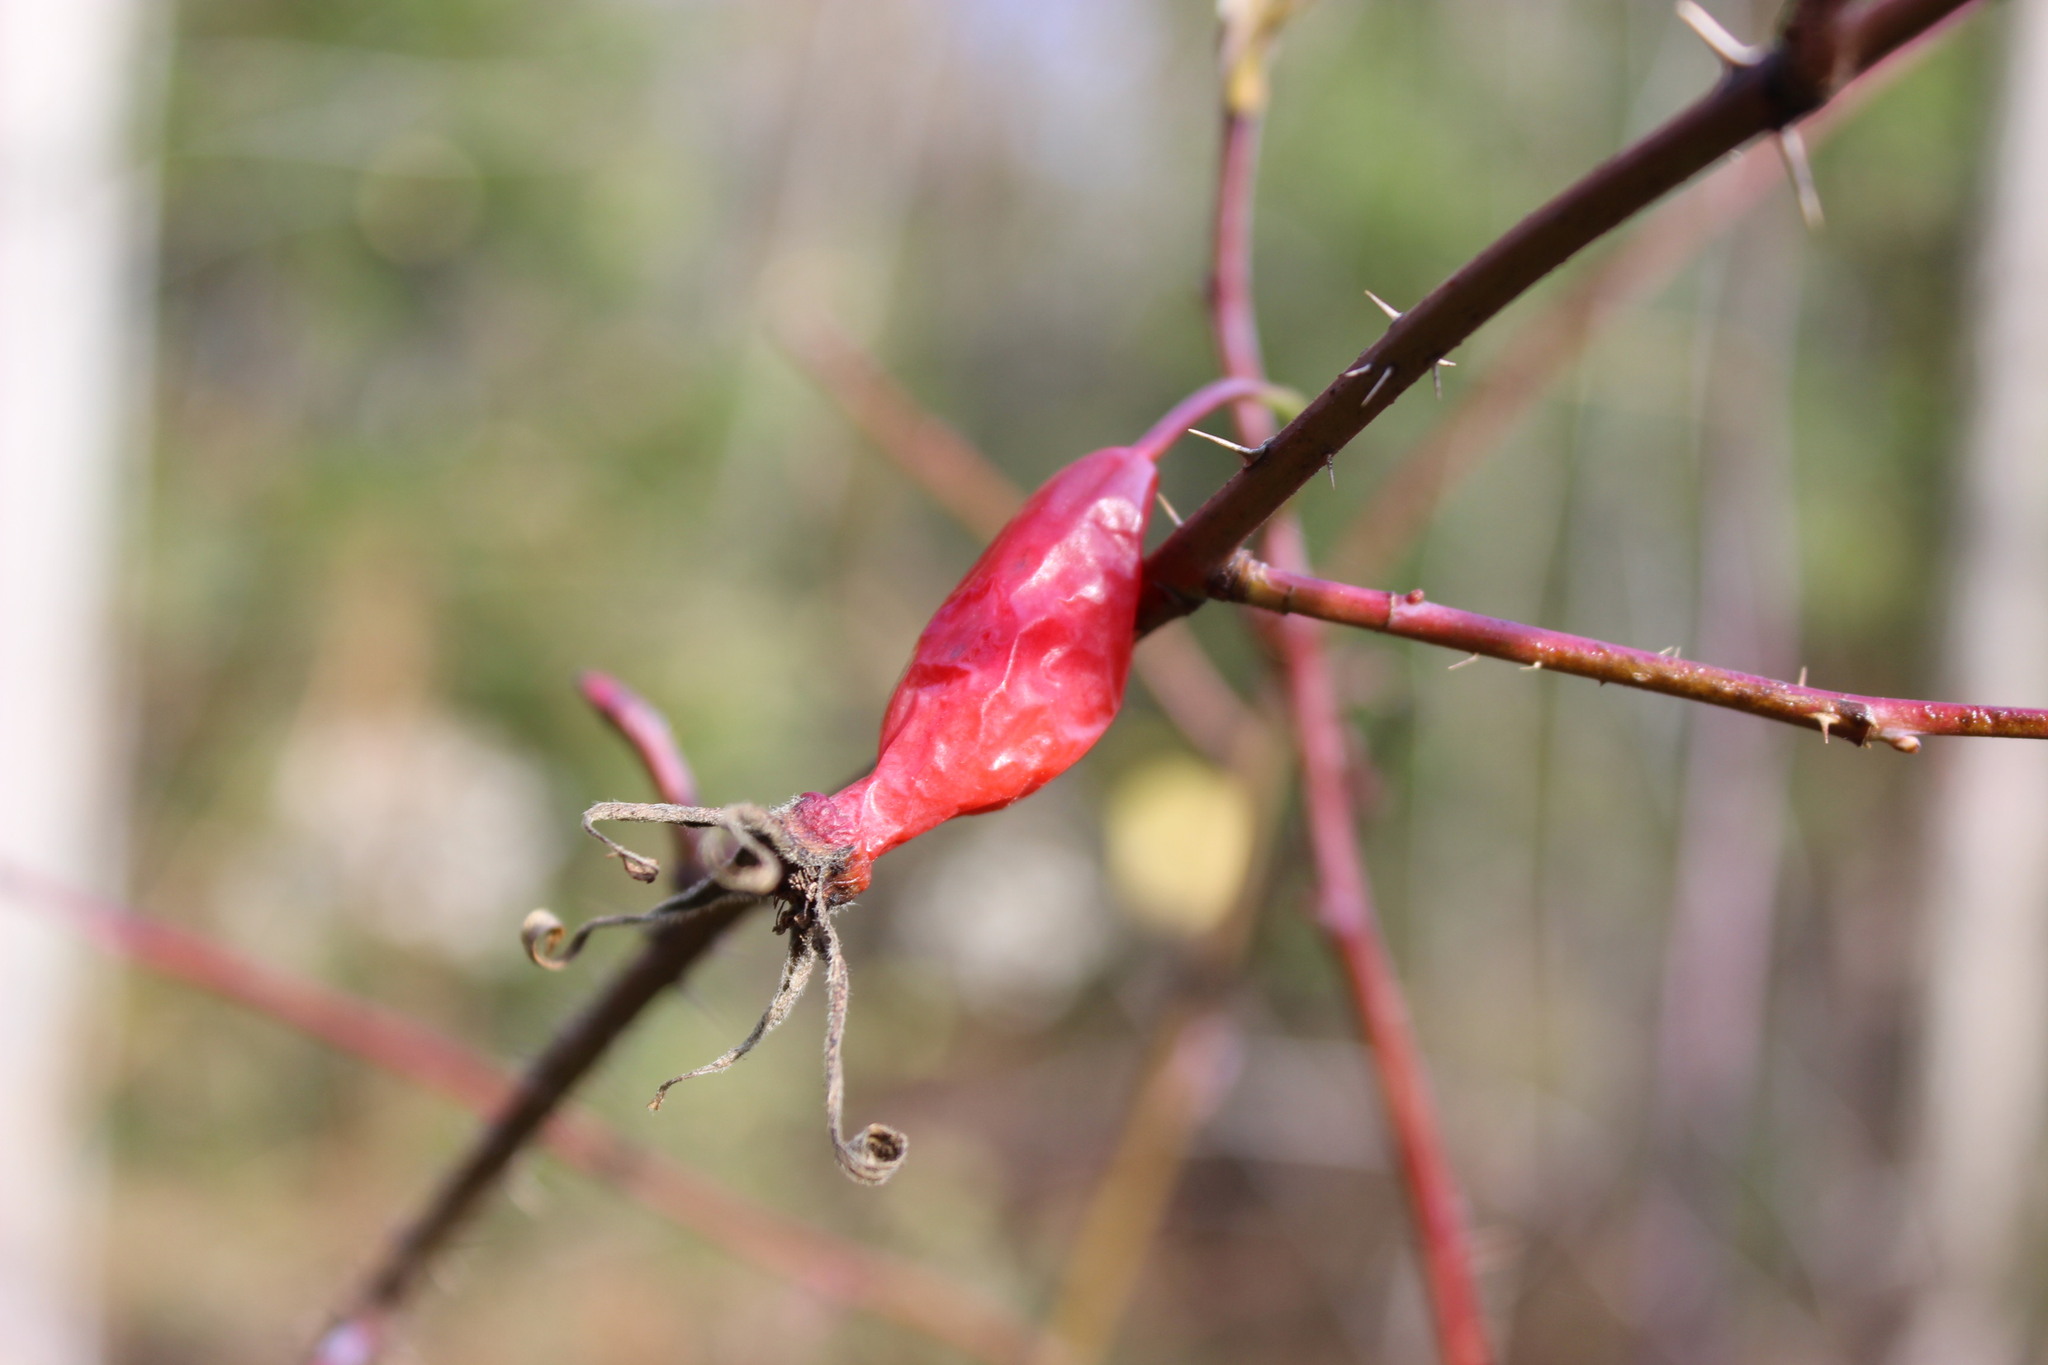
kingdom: Plantae
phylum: Tracheophyta
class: Magnoliopsida
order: Rosales
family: Rosaceae
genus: Rosa
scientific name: Rosa acicularis
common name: Prickly rose
